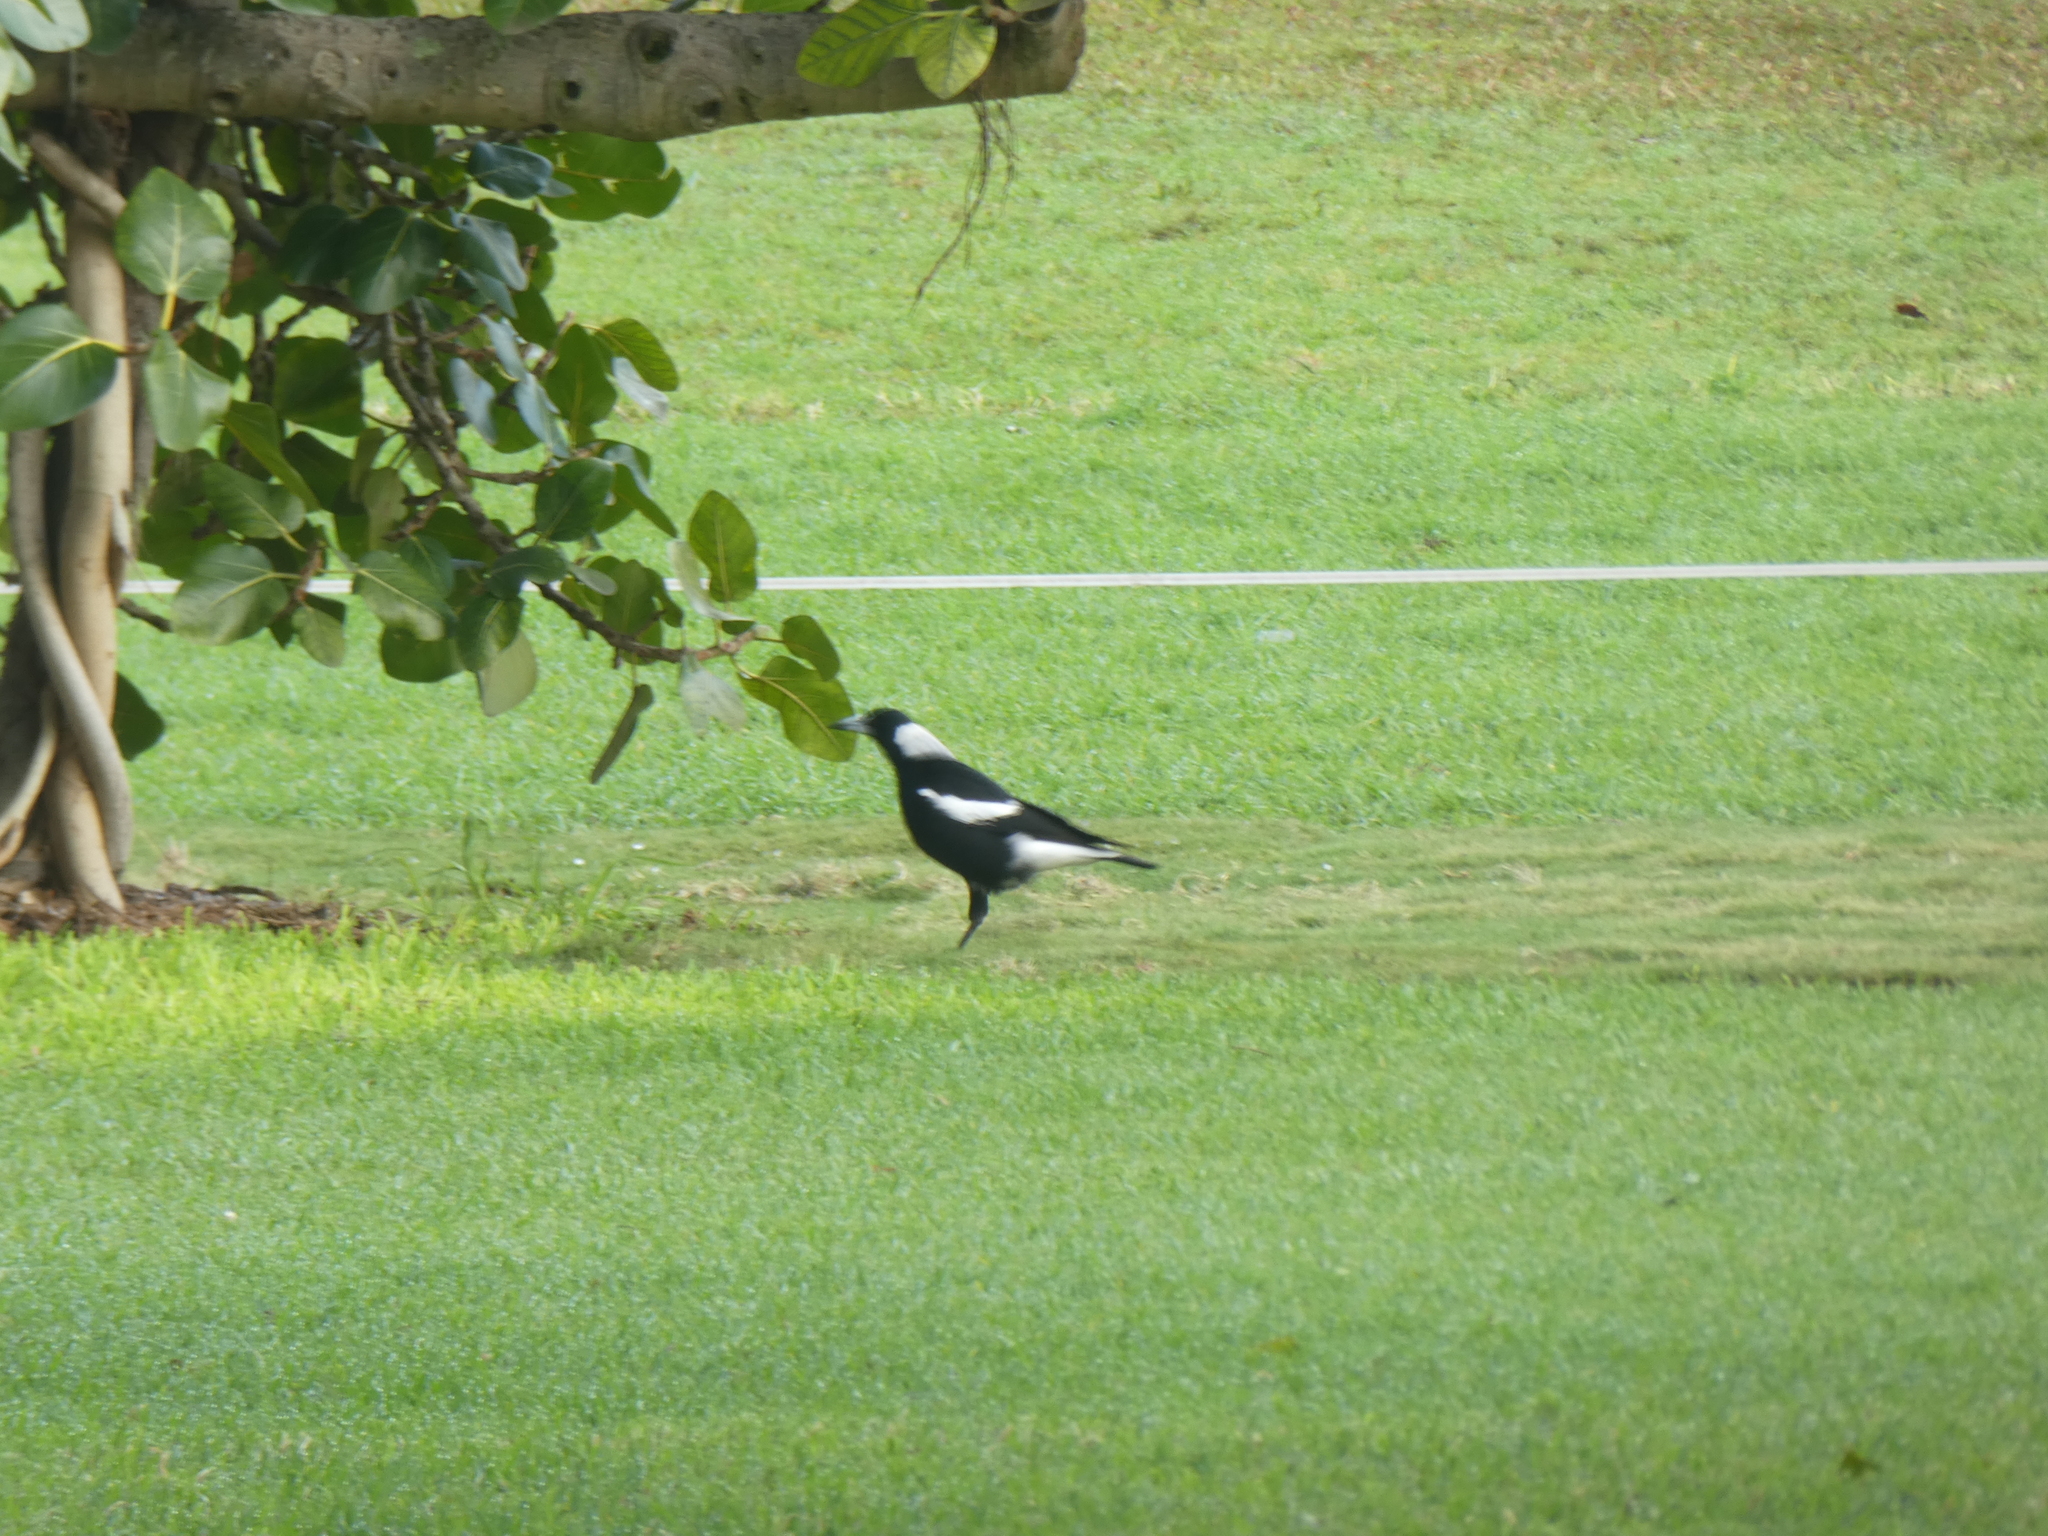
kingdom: Animalia
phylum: Chordata
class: Aves
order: Passeriformes
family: Cracticidae
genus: Gymnorhina
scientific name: Gymnorhina tibicen
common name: Australian magpie
